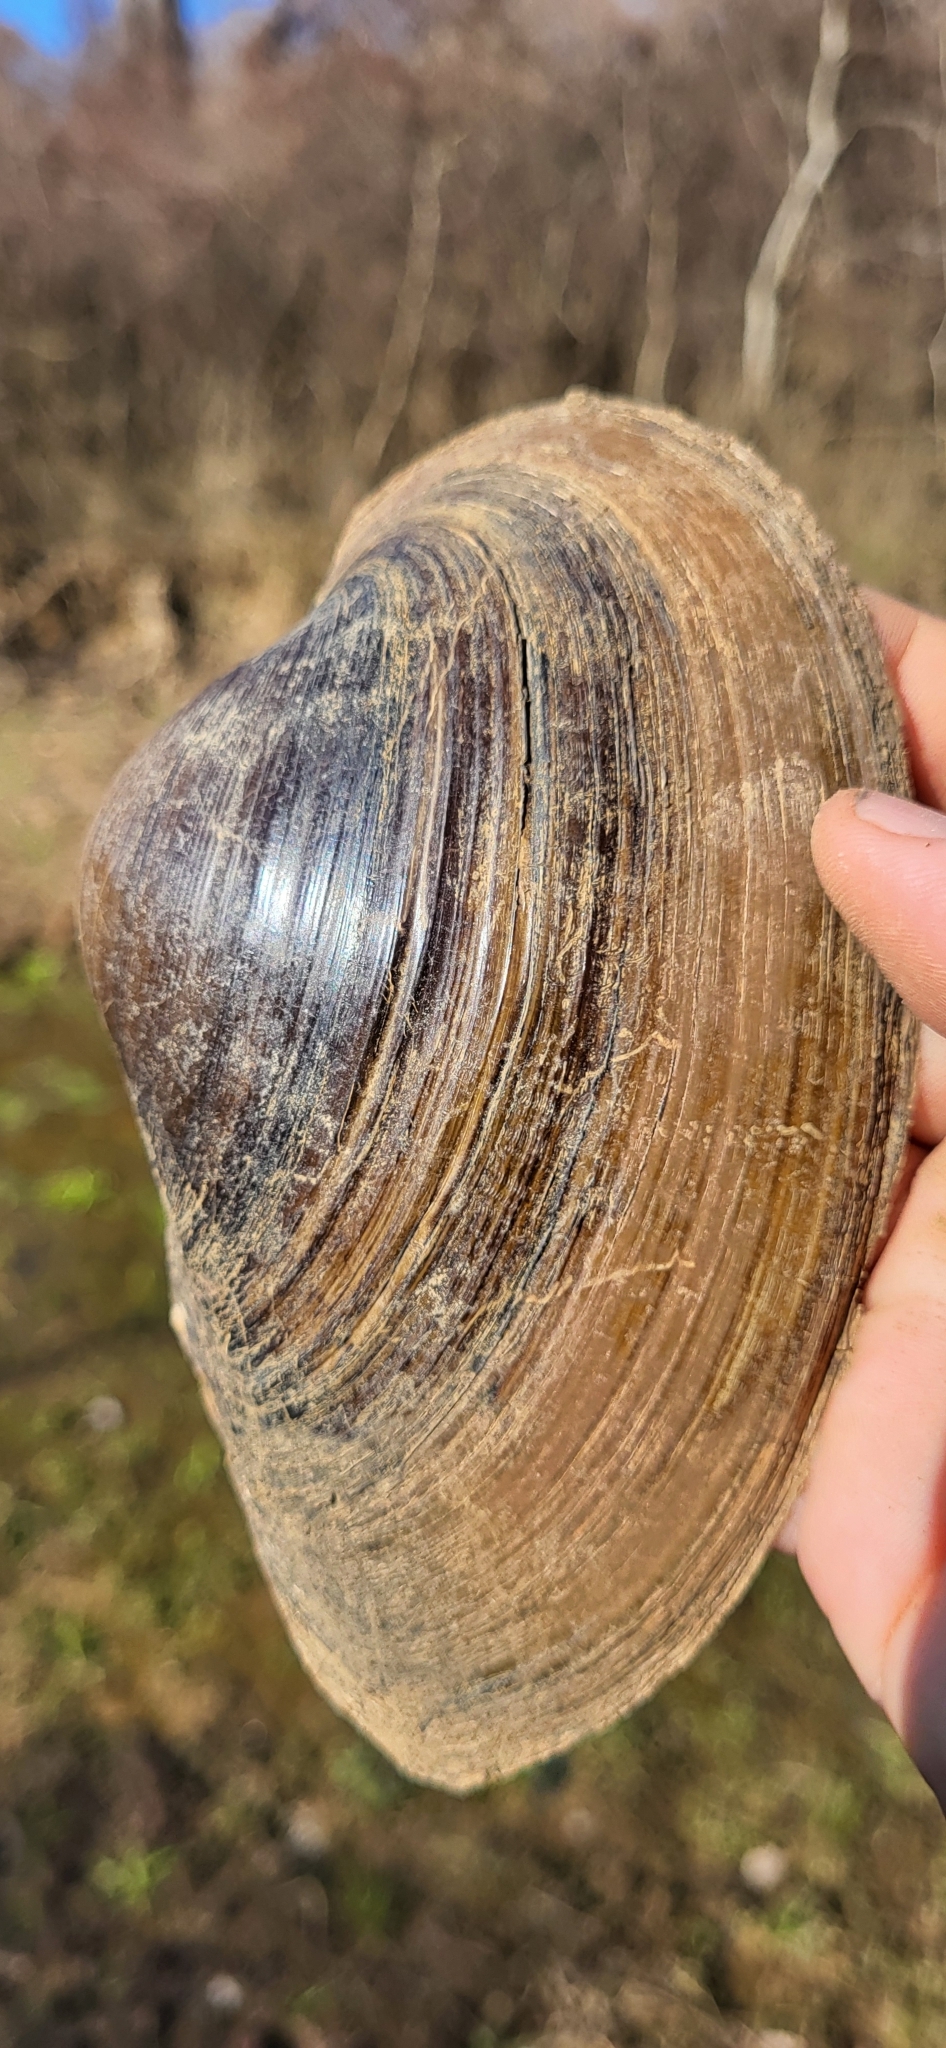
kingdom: Animalia
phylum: Mollusca
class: Bivalvia
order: Unionida
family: Unionidae
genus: Pyganodon
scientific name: Pyganodon grandis
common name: Giant floater
